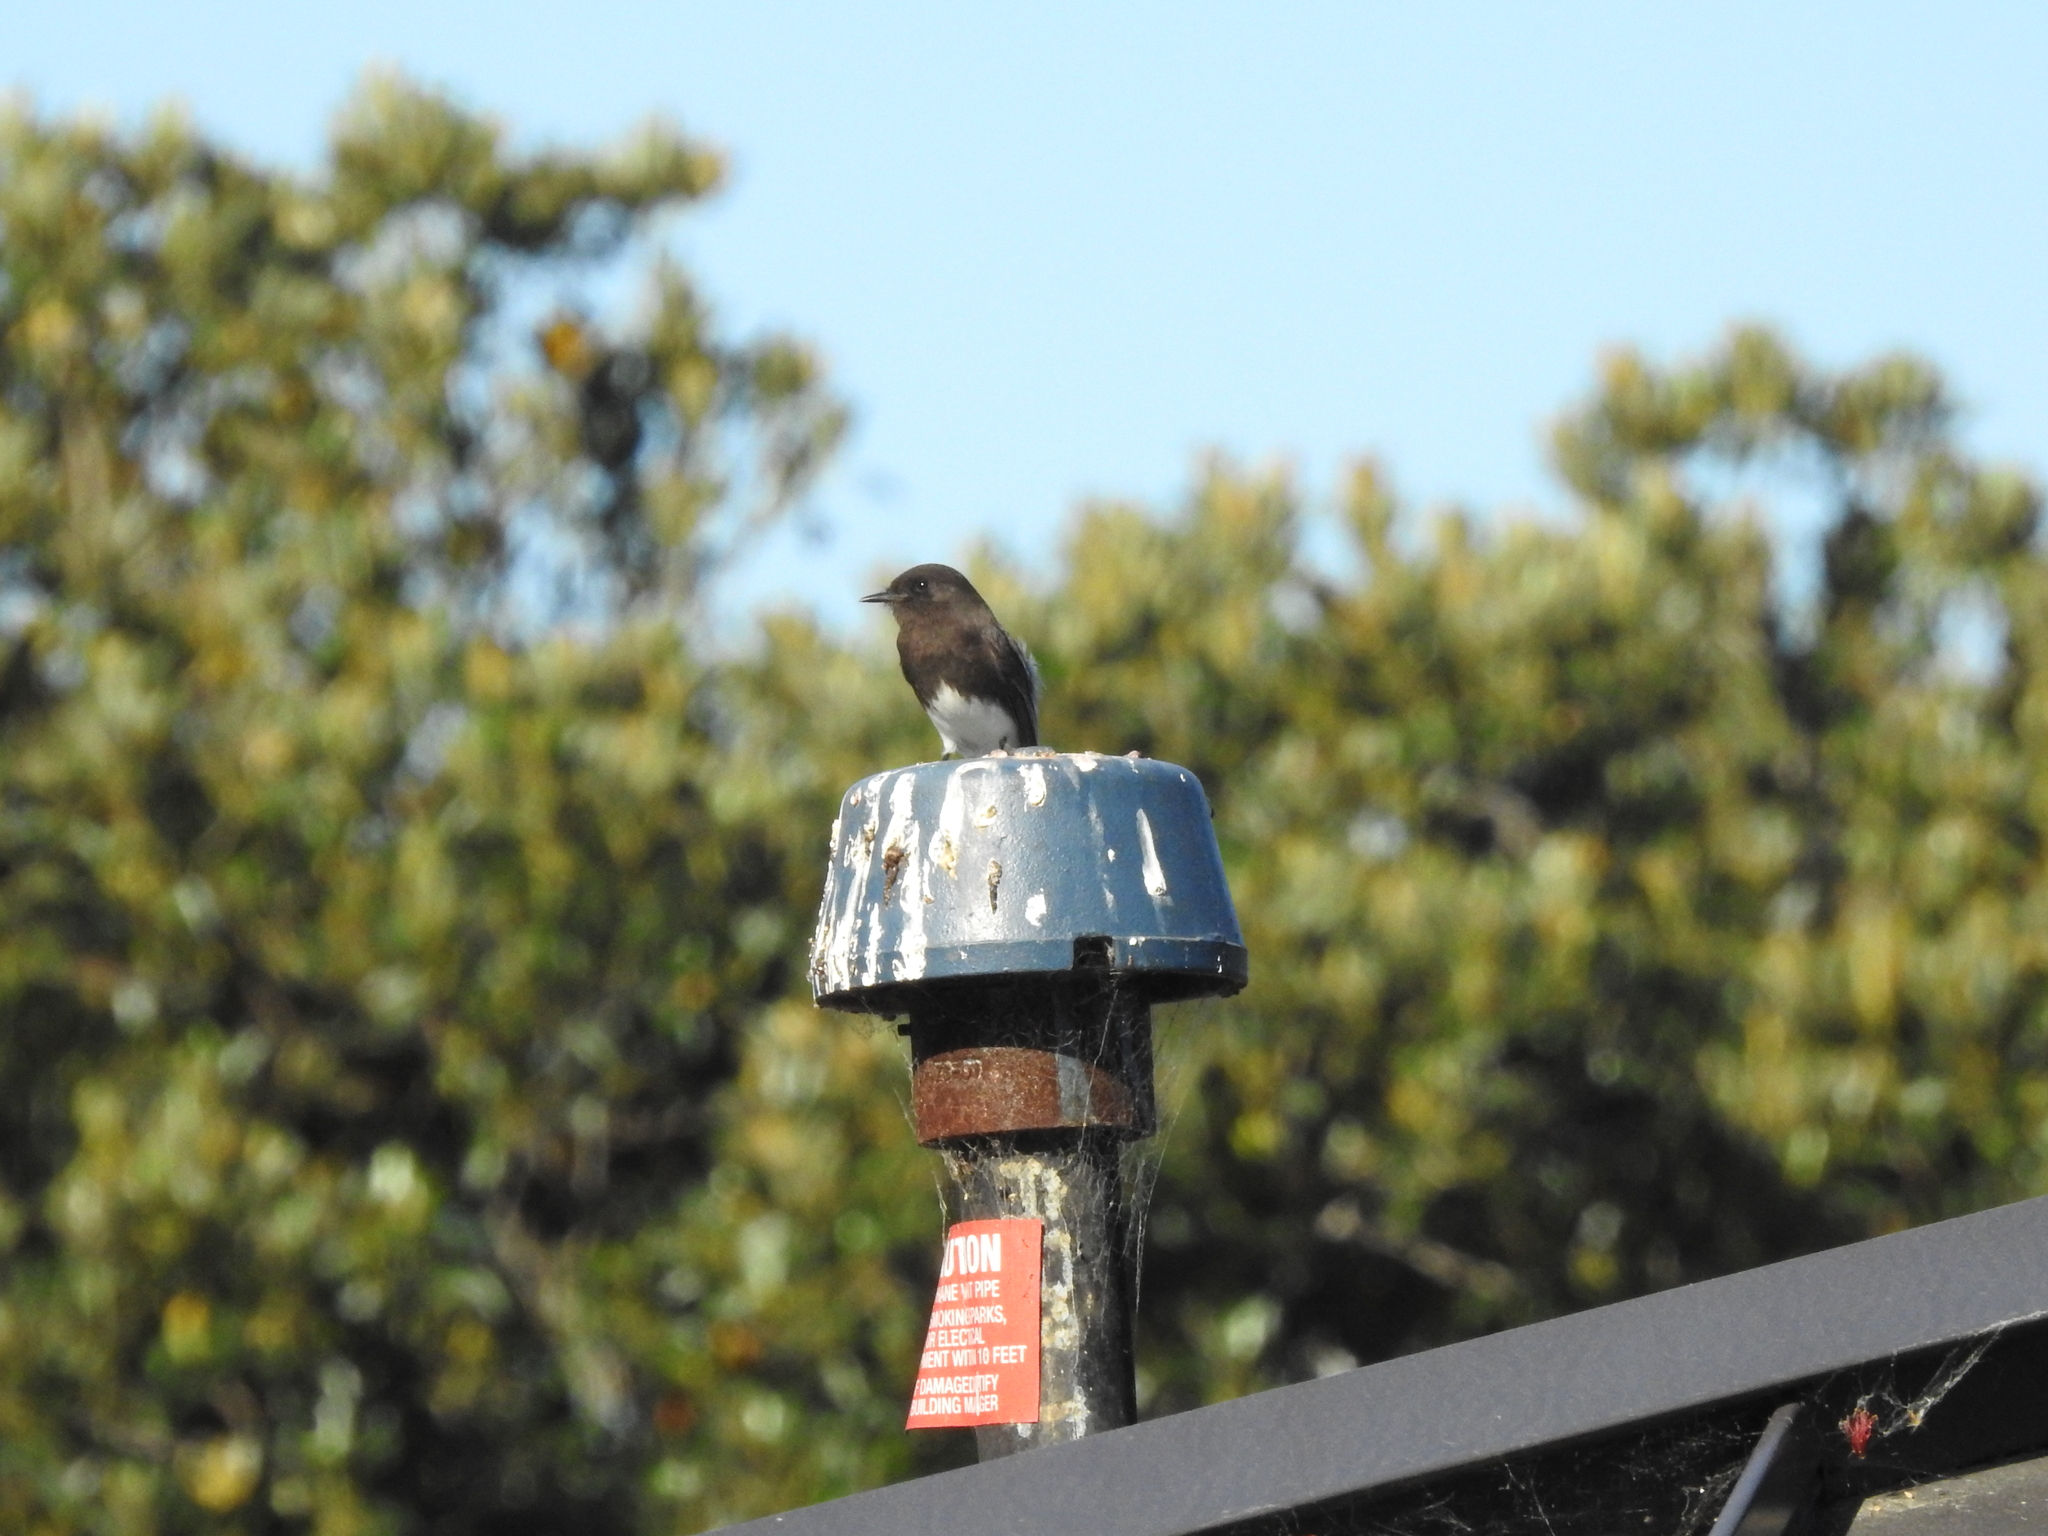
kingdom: Animalia
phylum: Chordata
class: Aves
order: Passeriformes
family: Tyrannidae
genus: Sayornis
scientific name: Sayornis nigricans
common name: Black phoebe
